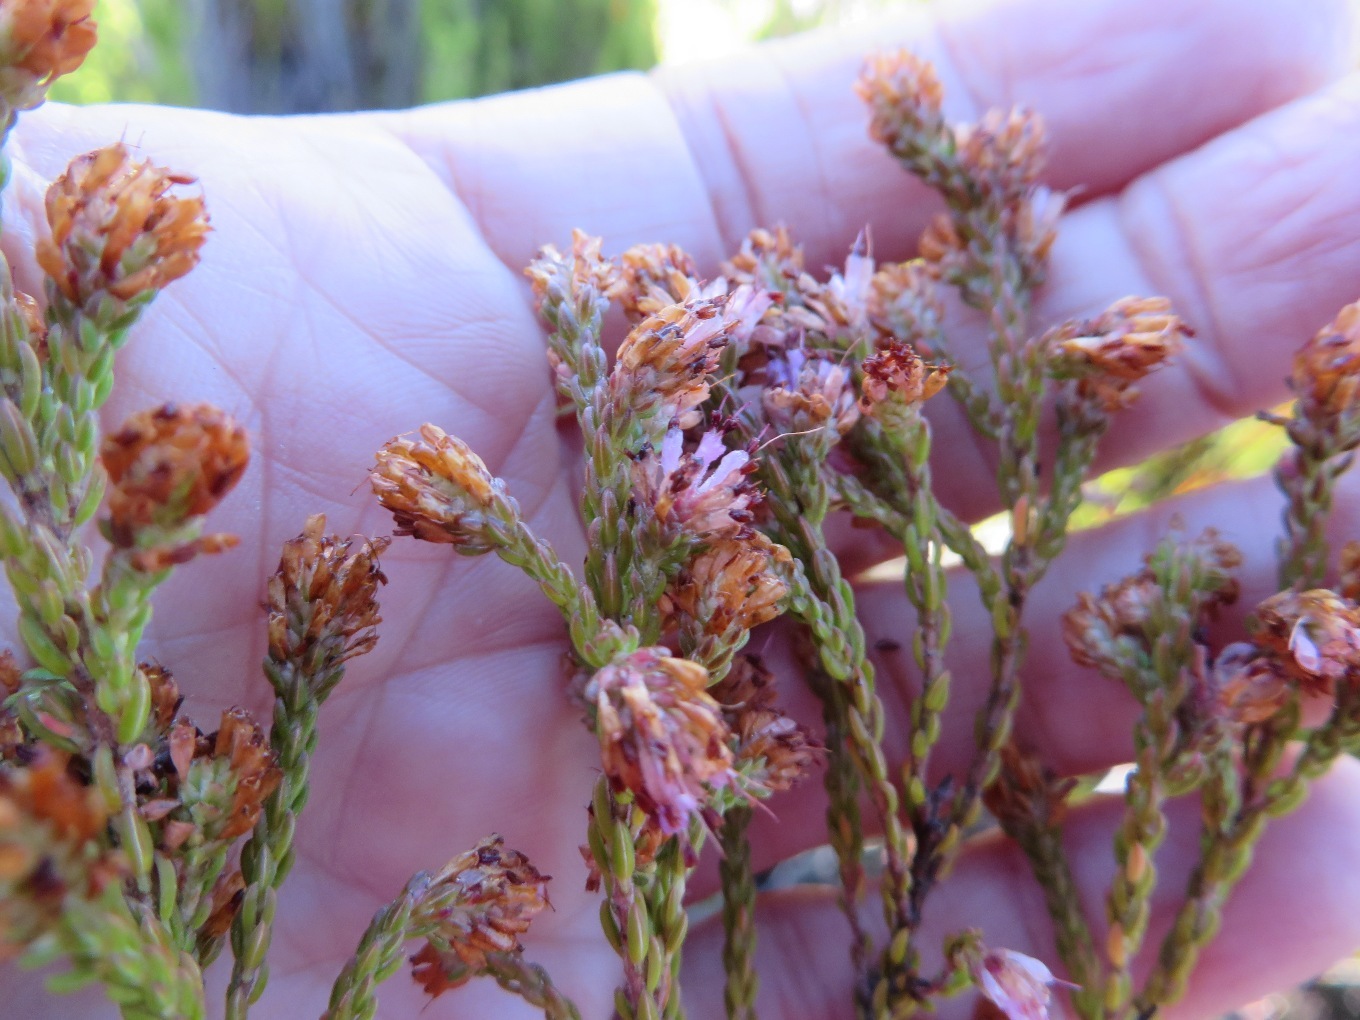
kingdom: Plantae
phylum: Tracheophyta
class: Magnoliopsida
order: Ericales
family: Ericaceae
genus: Erica
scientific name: Erica labialis
